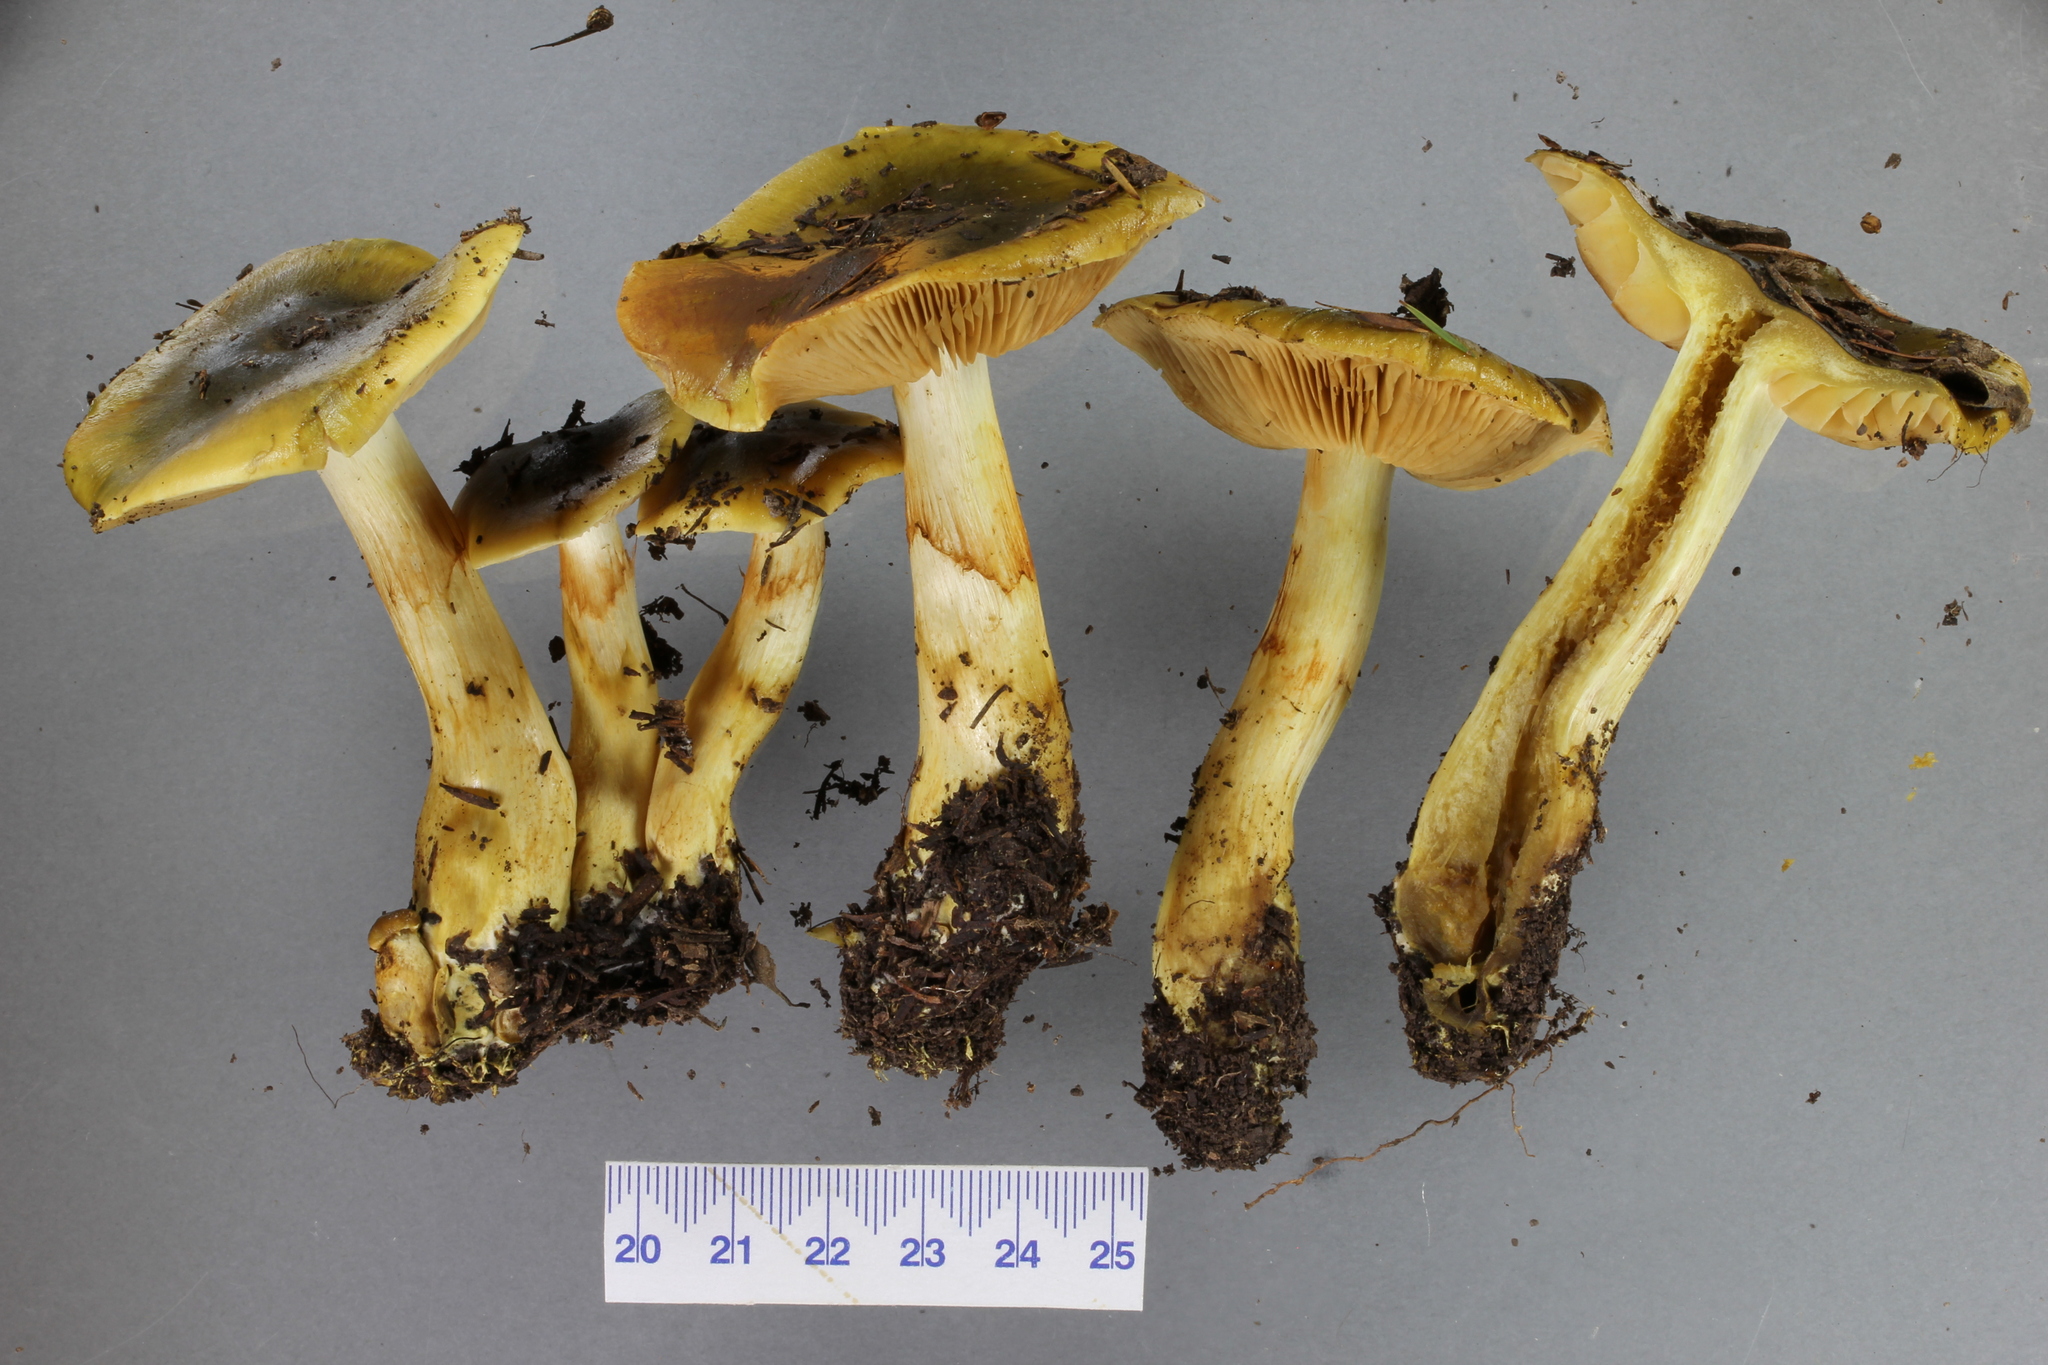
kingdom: Fungi
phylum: Basidiomycota
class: Agaricomycetes
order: Agaricales
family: Cortinariaceae
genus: Cortinarius
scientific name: Cortinarius alienatus
